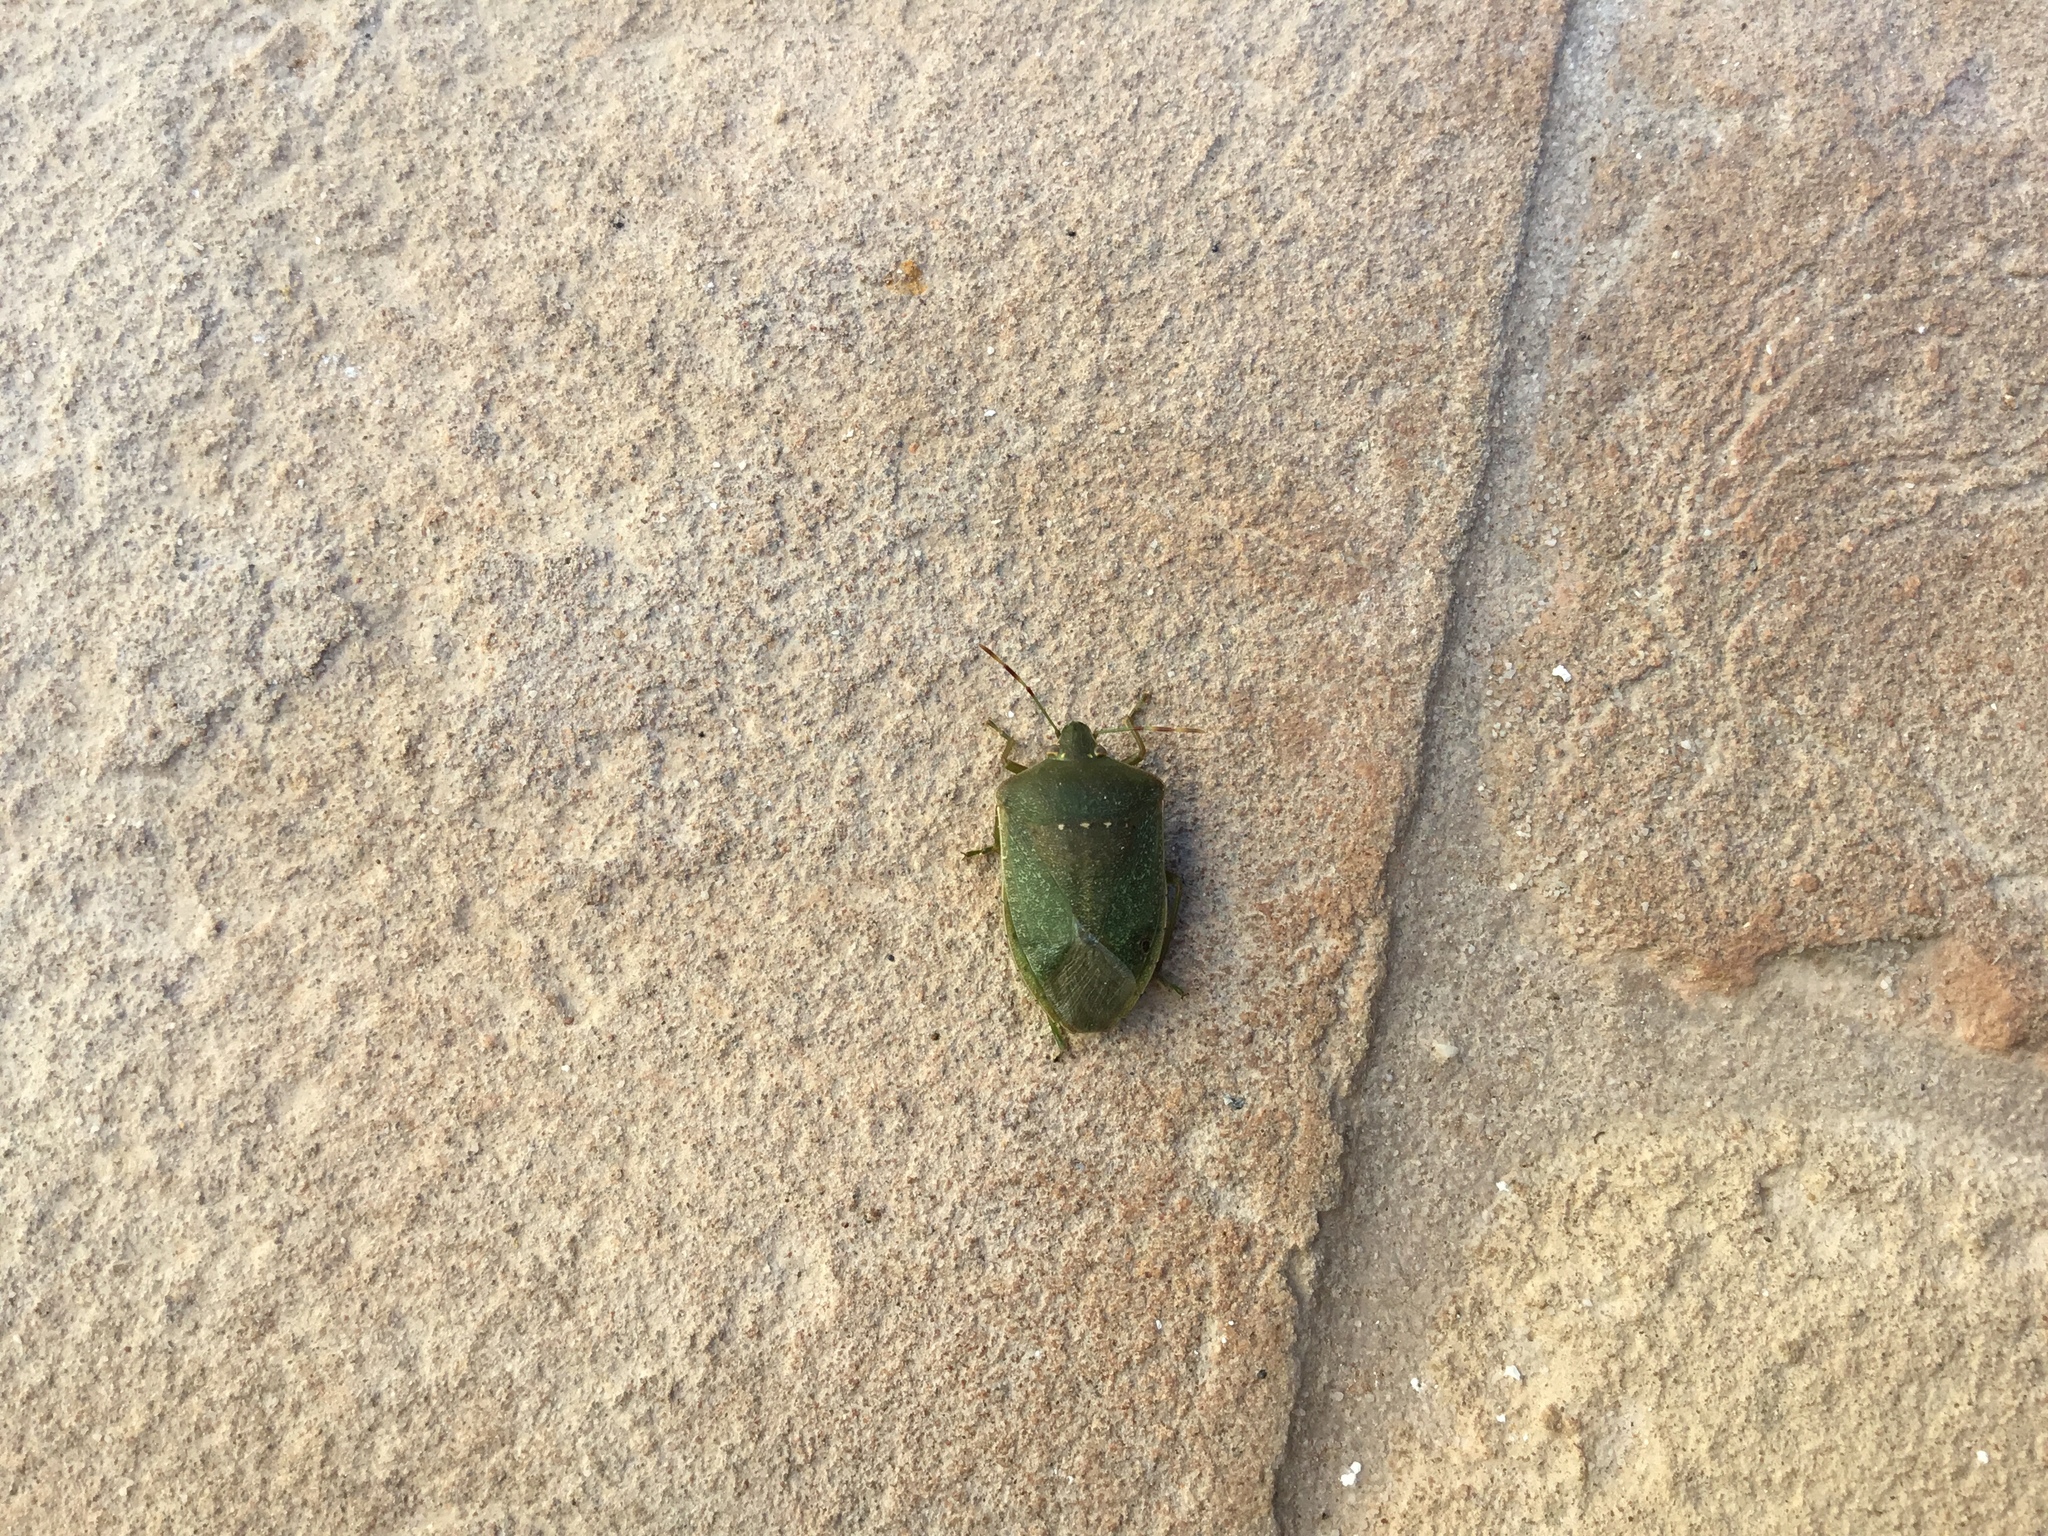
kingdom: Animalia
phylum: Arthropoda
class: Insecta
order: Hemiptera
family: Pentatomidae
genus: Nezara
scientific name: Nezara viridula
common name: Southern green stink bug
